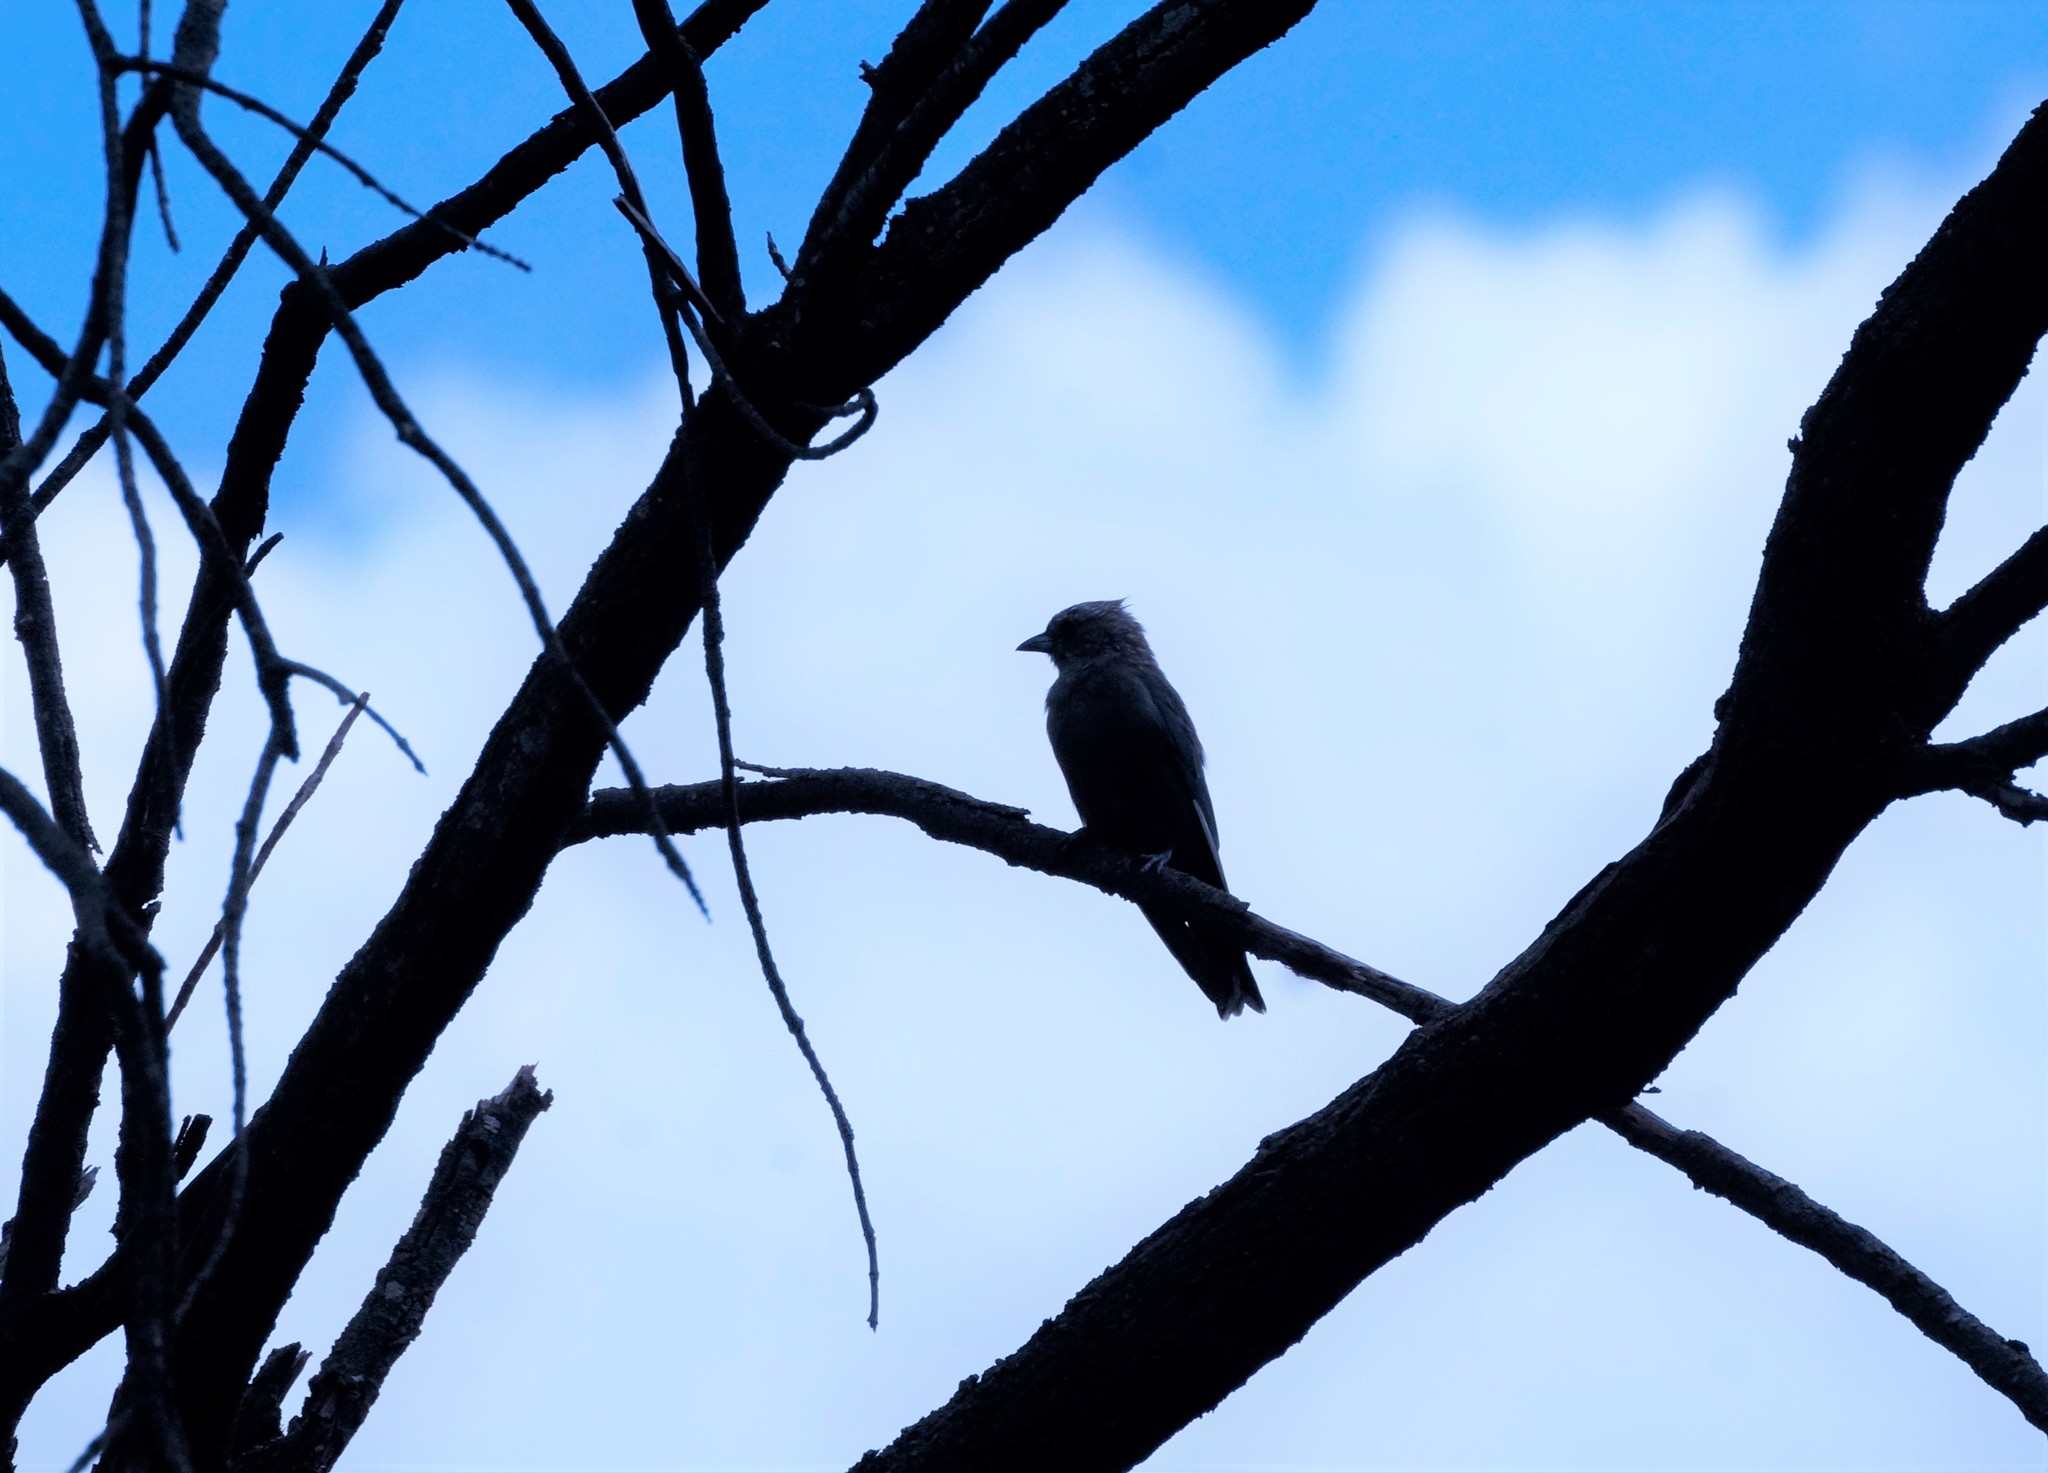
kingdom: Animalia
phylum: Chordata
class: Aves
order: Passeriformes
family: Artamidae
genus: Artamus
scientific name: Artamus cyanopterus
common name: Dusky woodswallow
